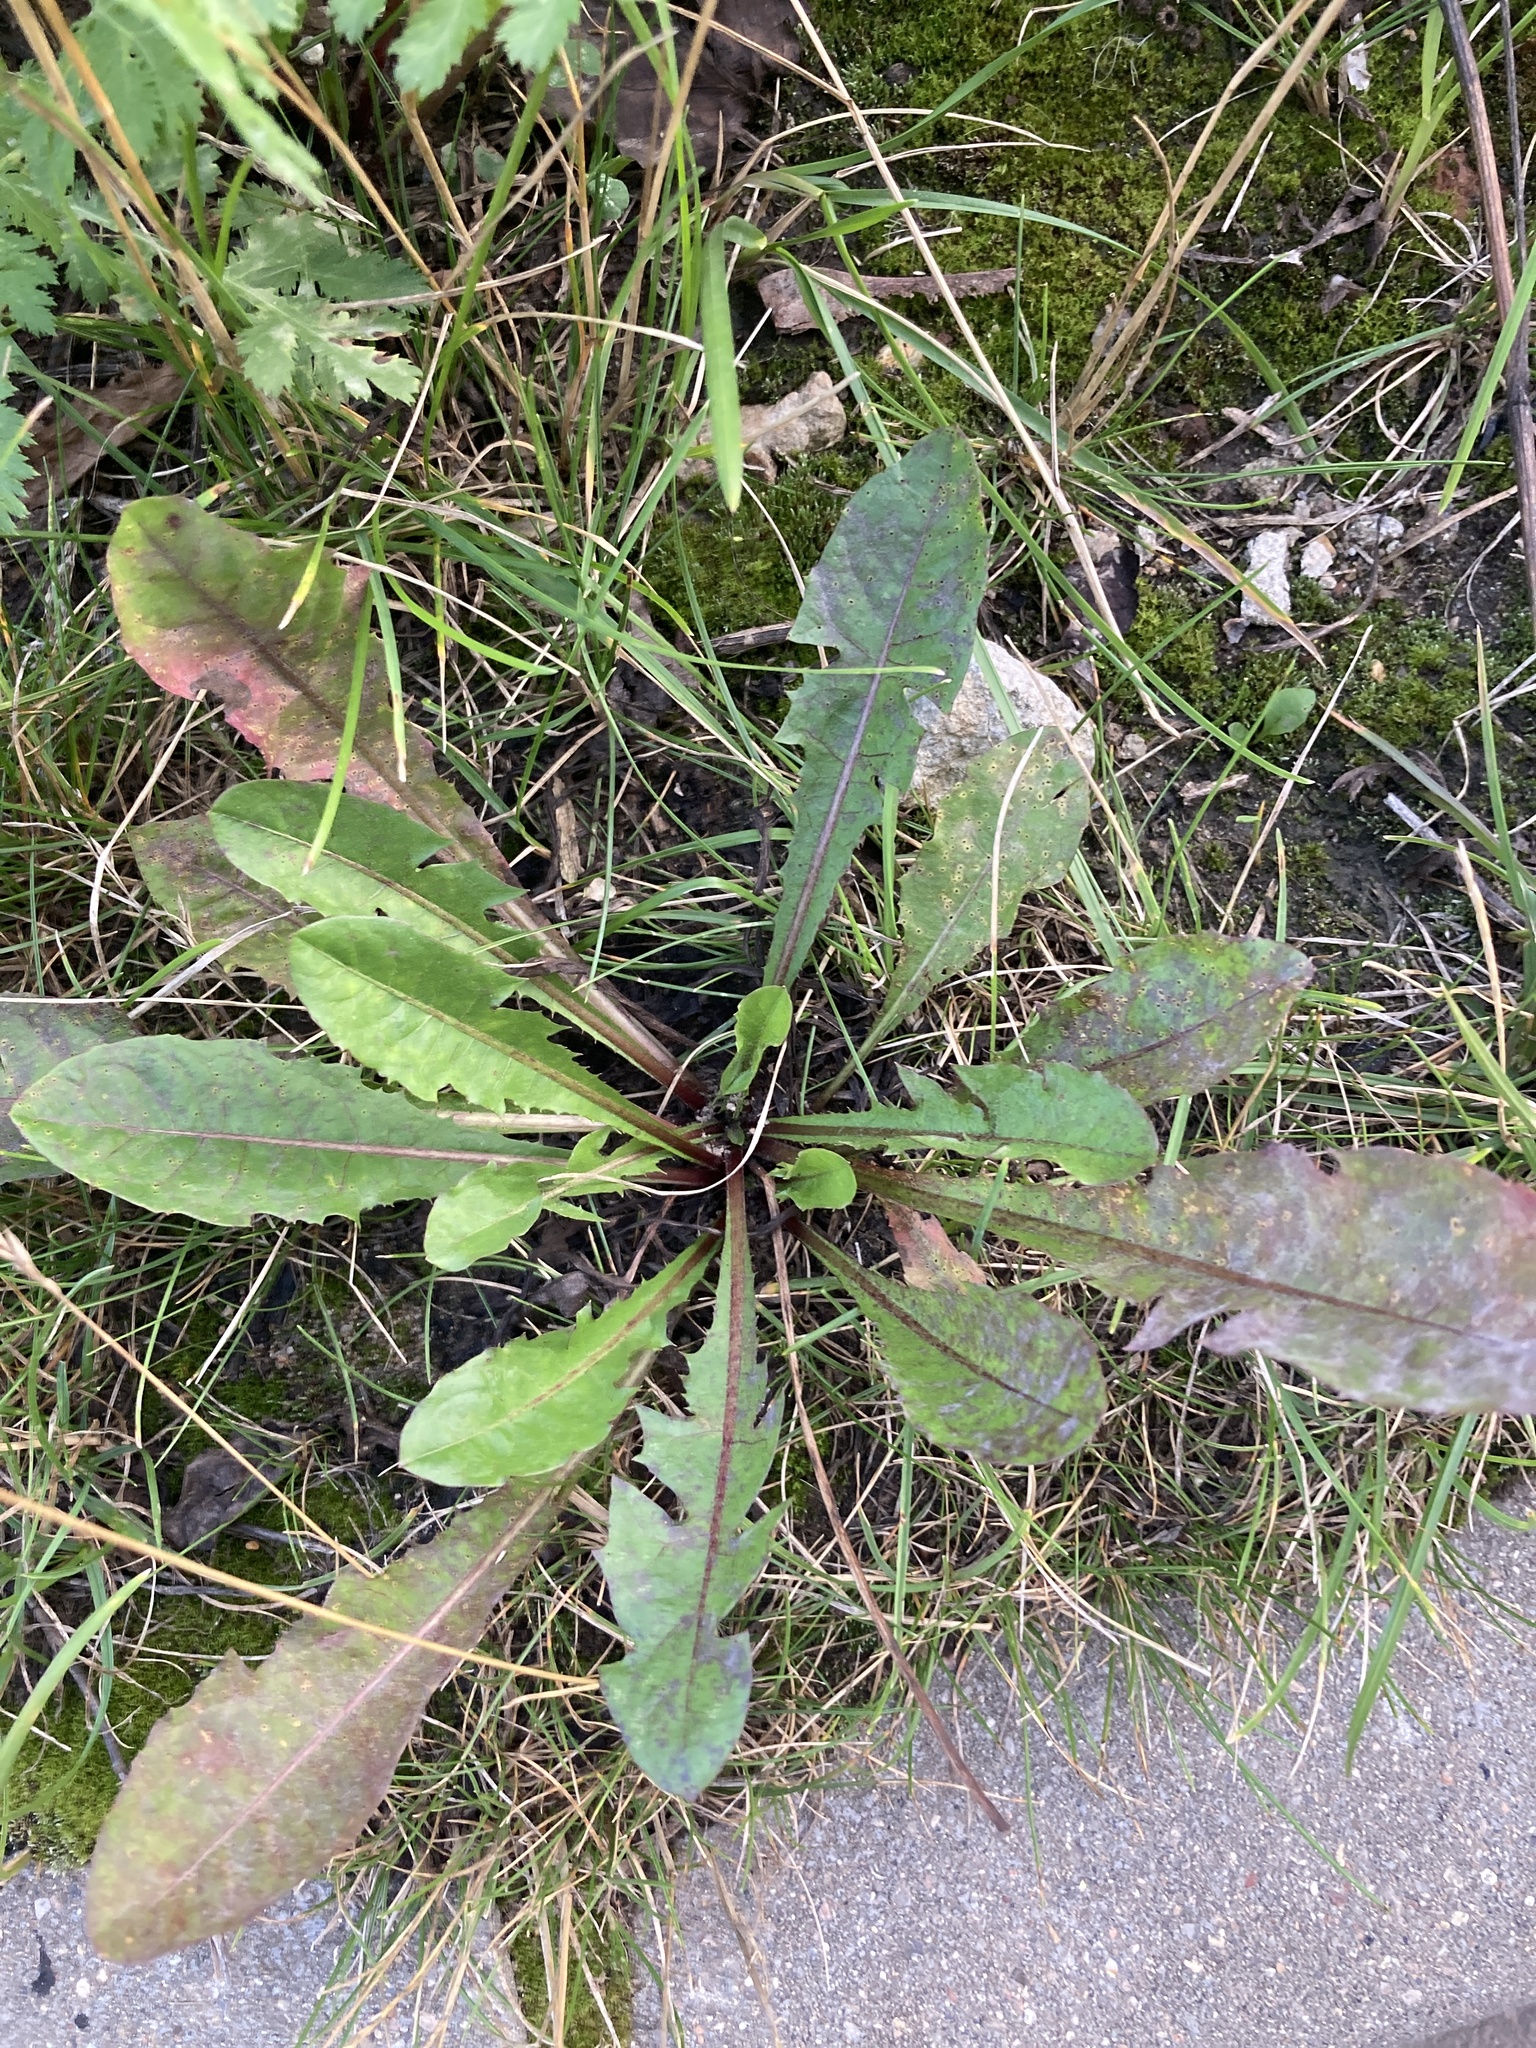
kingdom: Plantae
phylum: Tracheophyta
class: Magnoliopsida
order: Asterales
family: Asteraceae
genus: Taraxacum
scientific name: Taraxacum officinale
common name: Common dandelion
